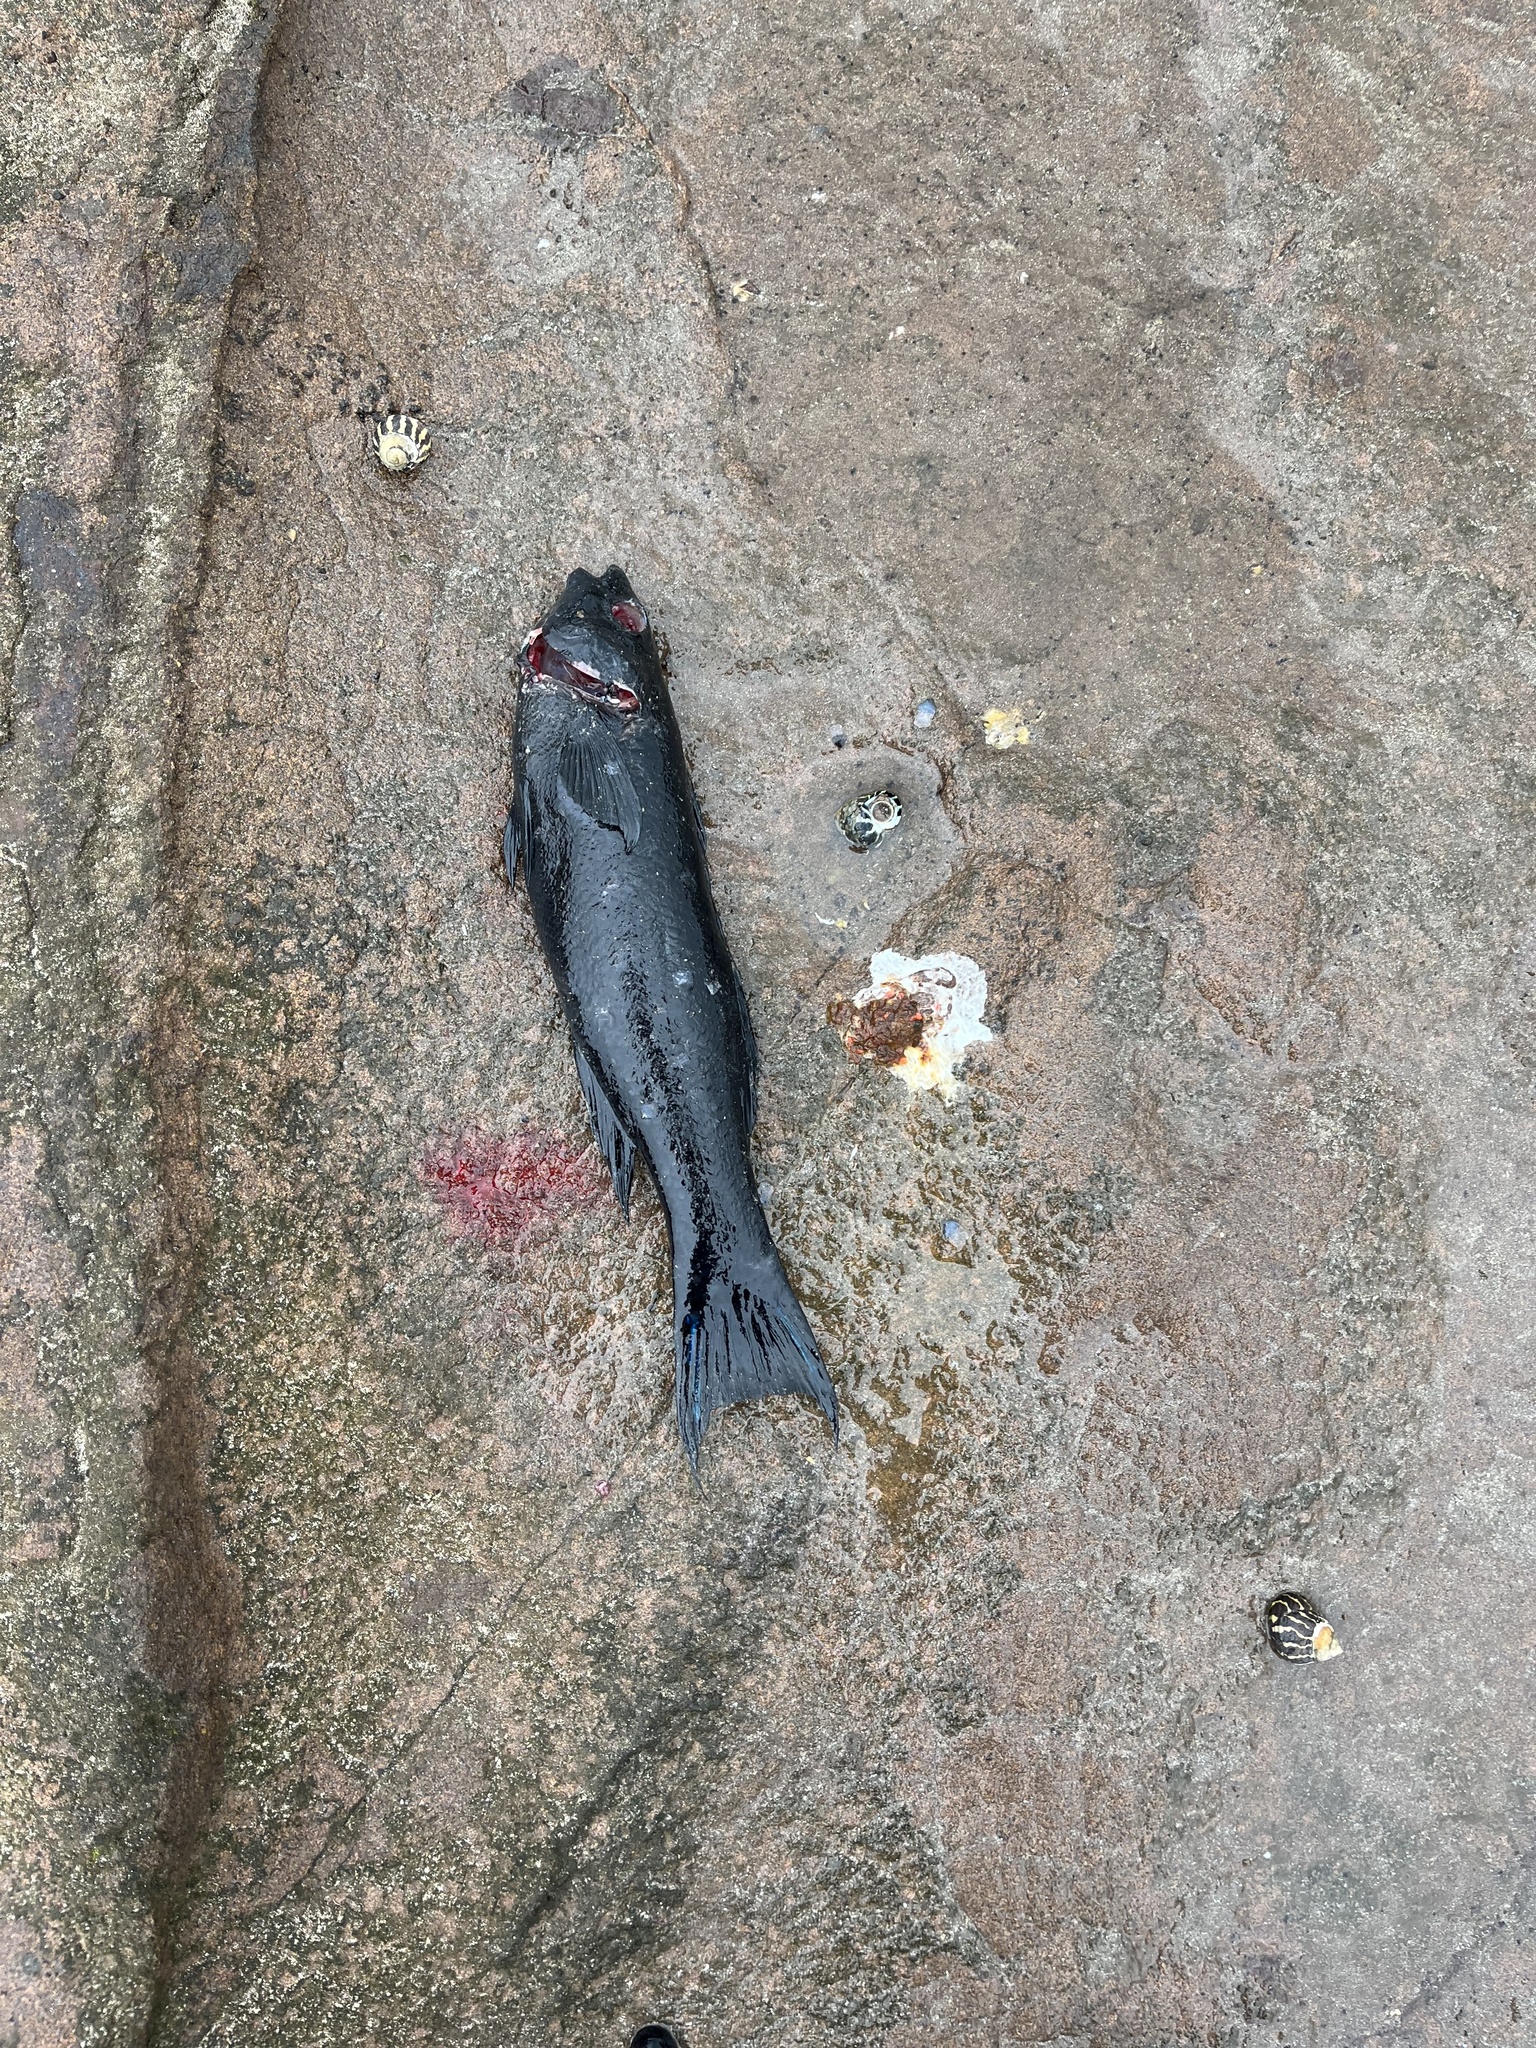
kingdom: Animalia
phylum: Chordata
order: Perciformes
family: Odacidae
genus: Olisthops
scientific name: Olisthops cyanomelas
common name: Herring cale
